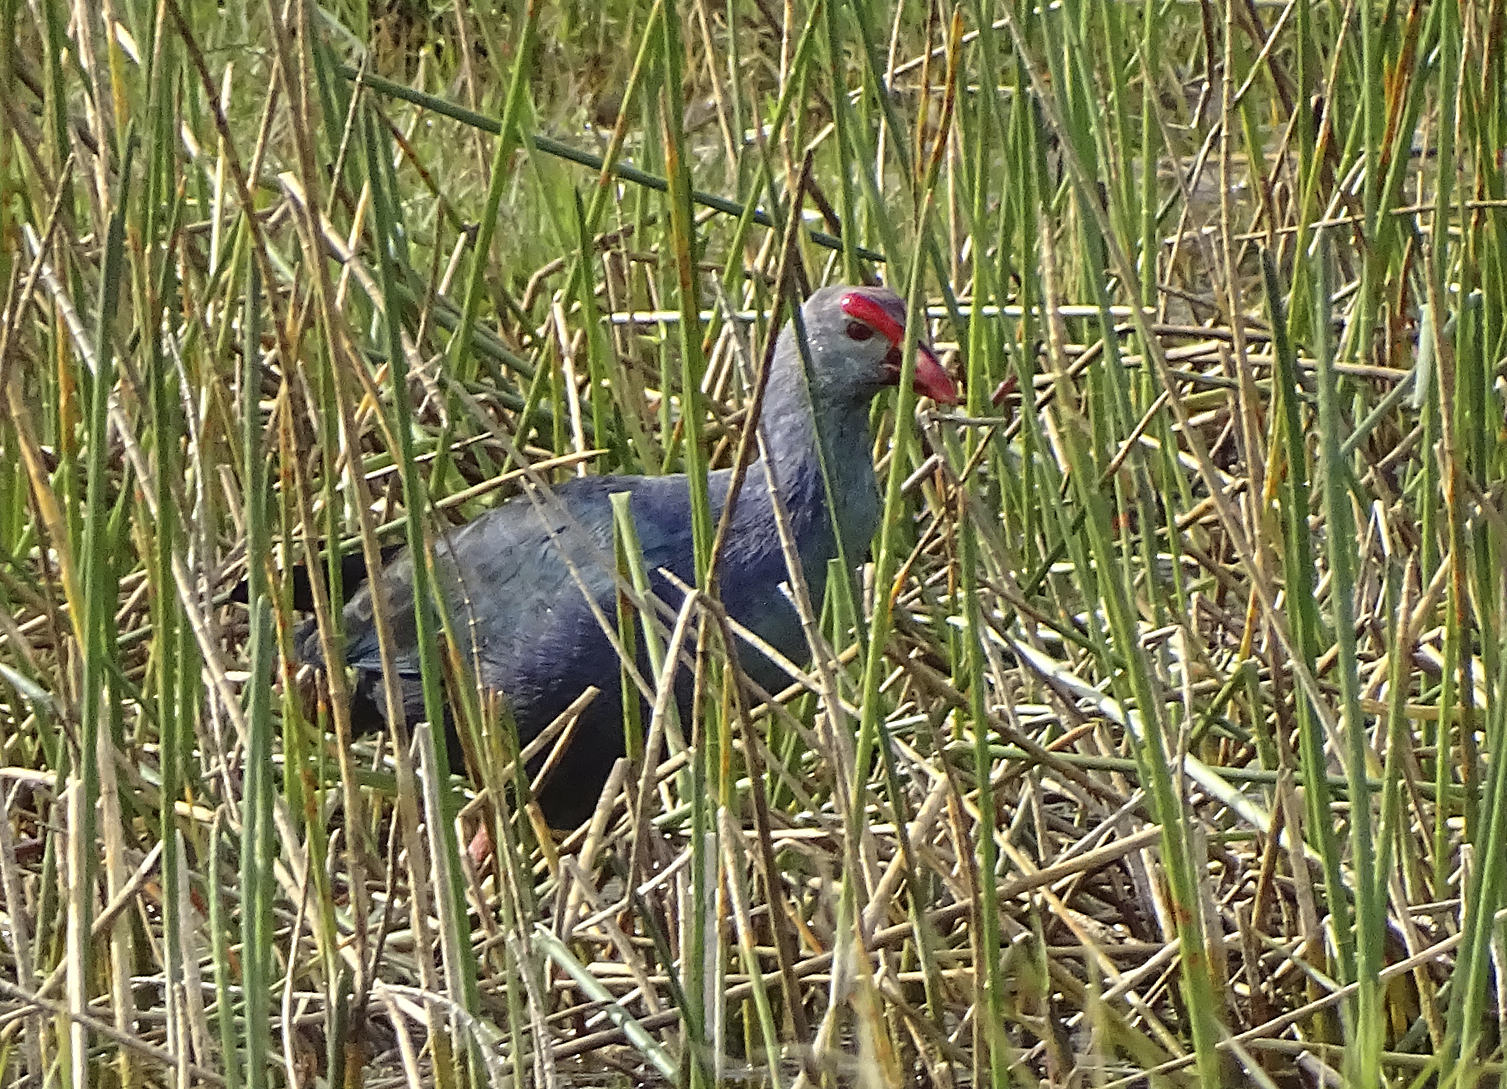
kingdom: Animalia
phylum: Chordata
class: Aves
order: Gruiformes
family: Rallidae
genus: Porphyrio
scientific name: Porphyrio porphyrio
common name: Purple swamphen
